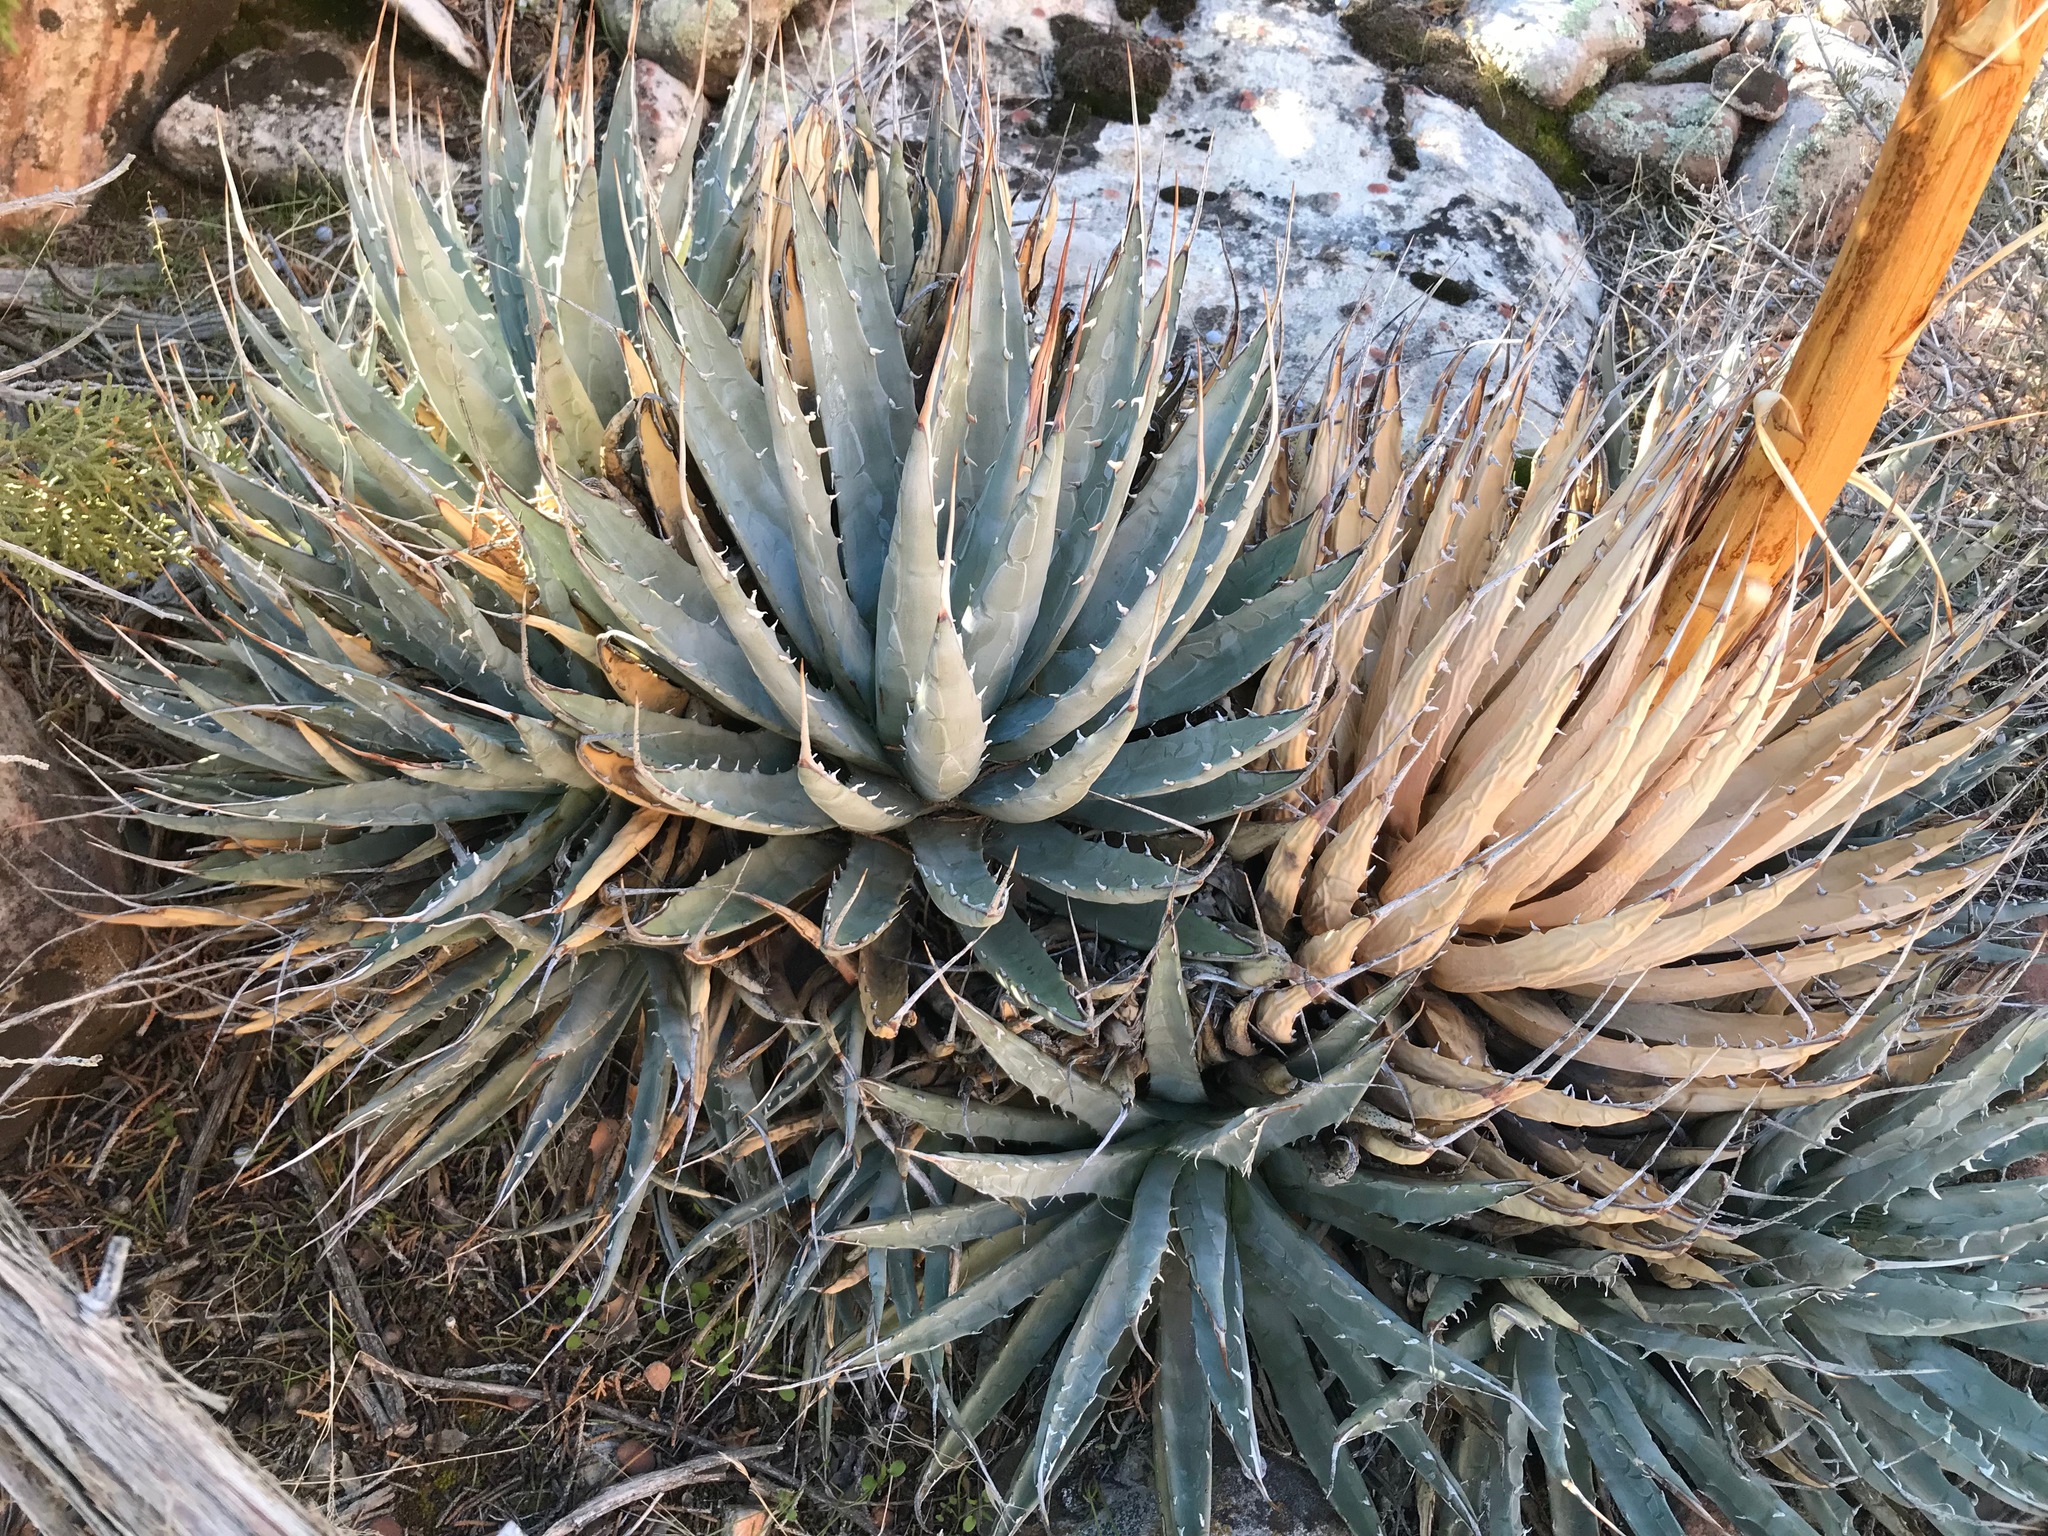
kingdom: Plantae
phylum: Tracheophyta
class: Liliopsida
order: Asparagales
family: Asparagaceae
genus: Agave
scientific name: Agave utahensis
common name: Utah agave
